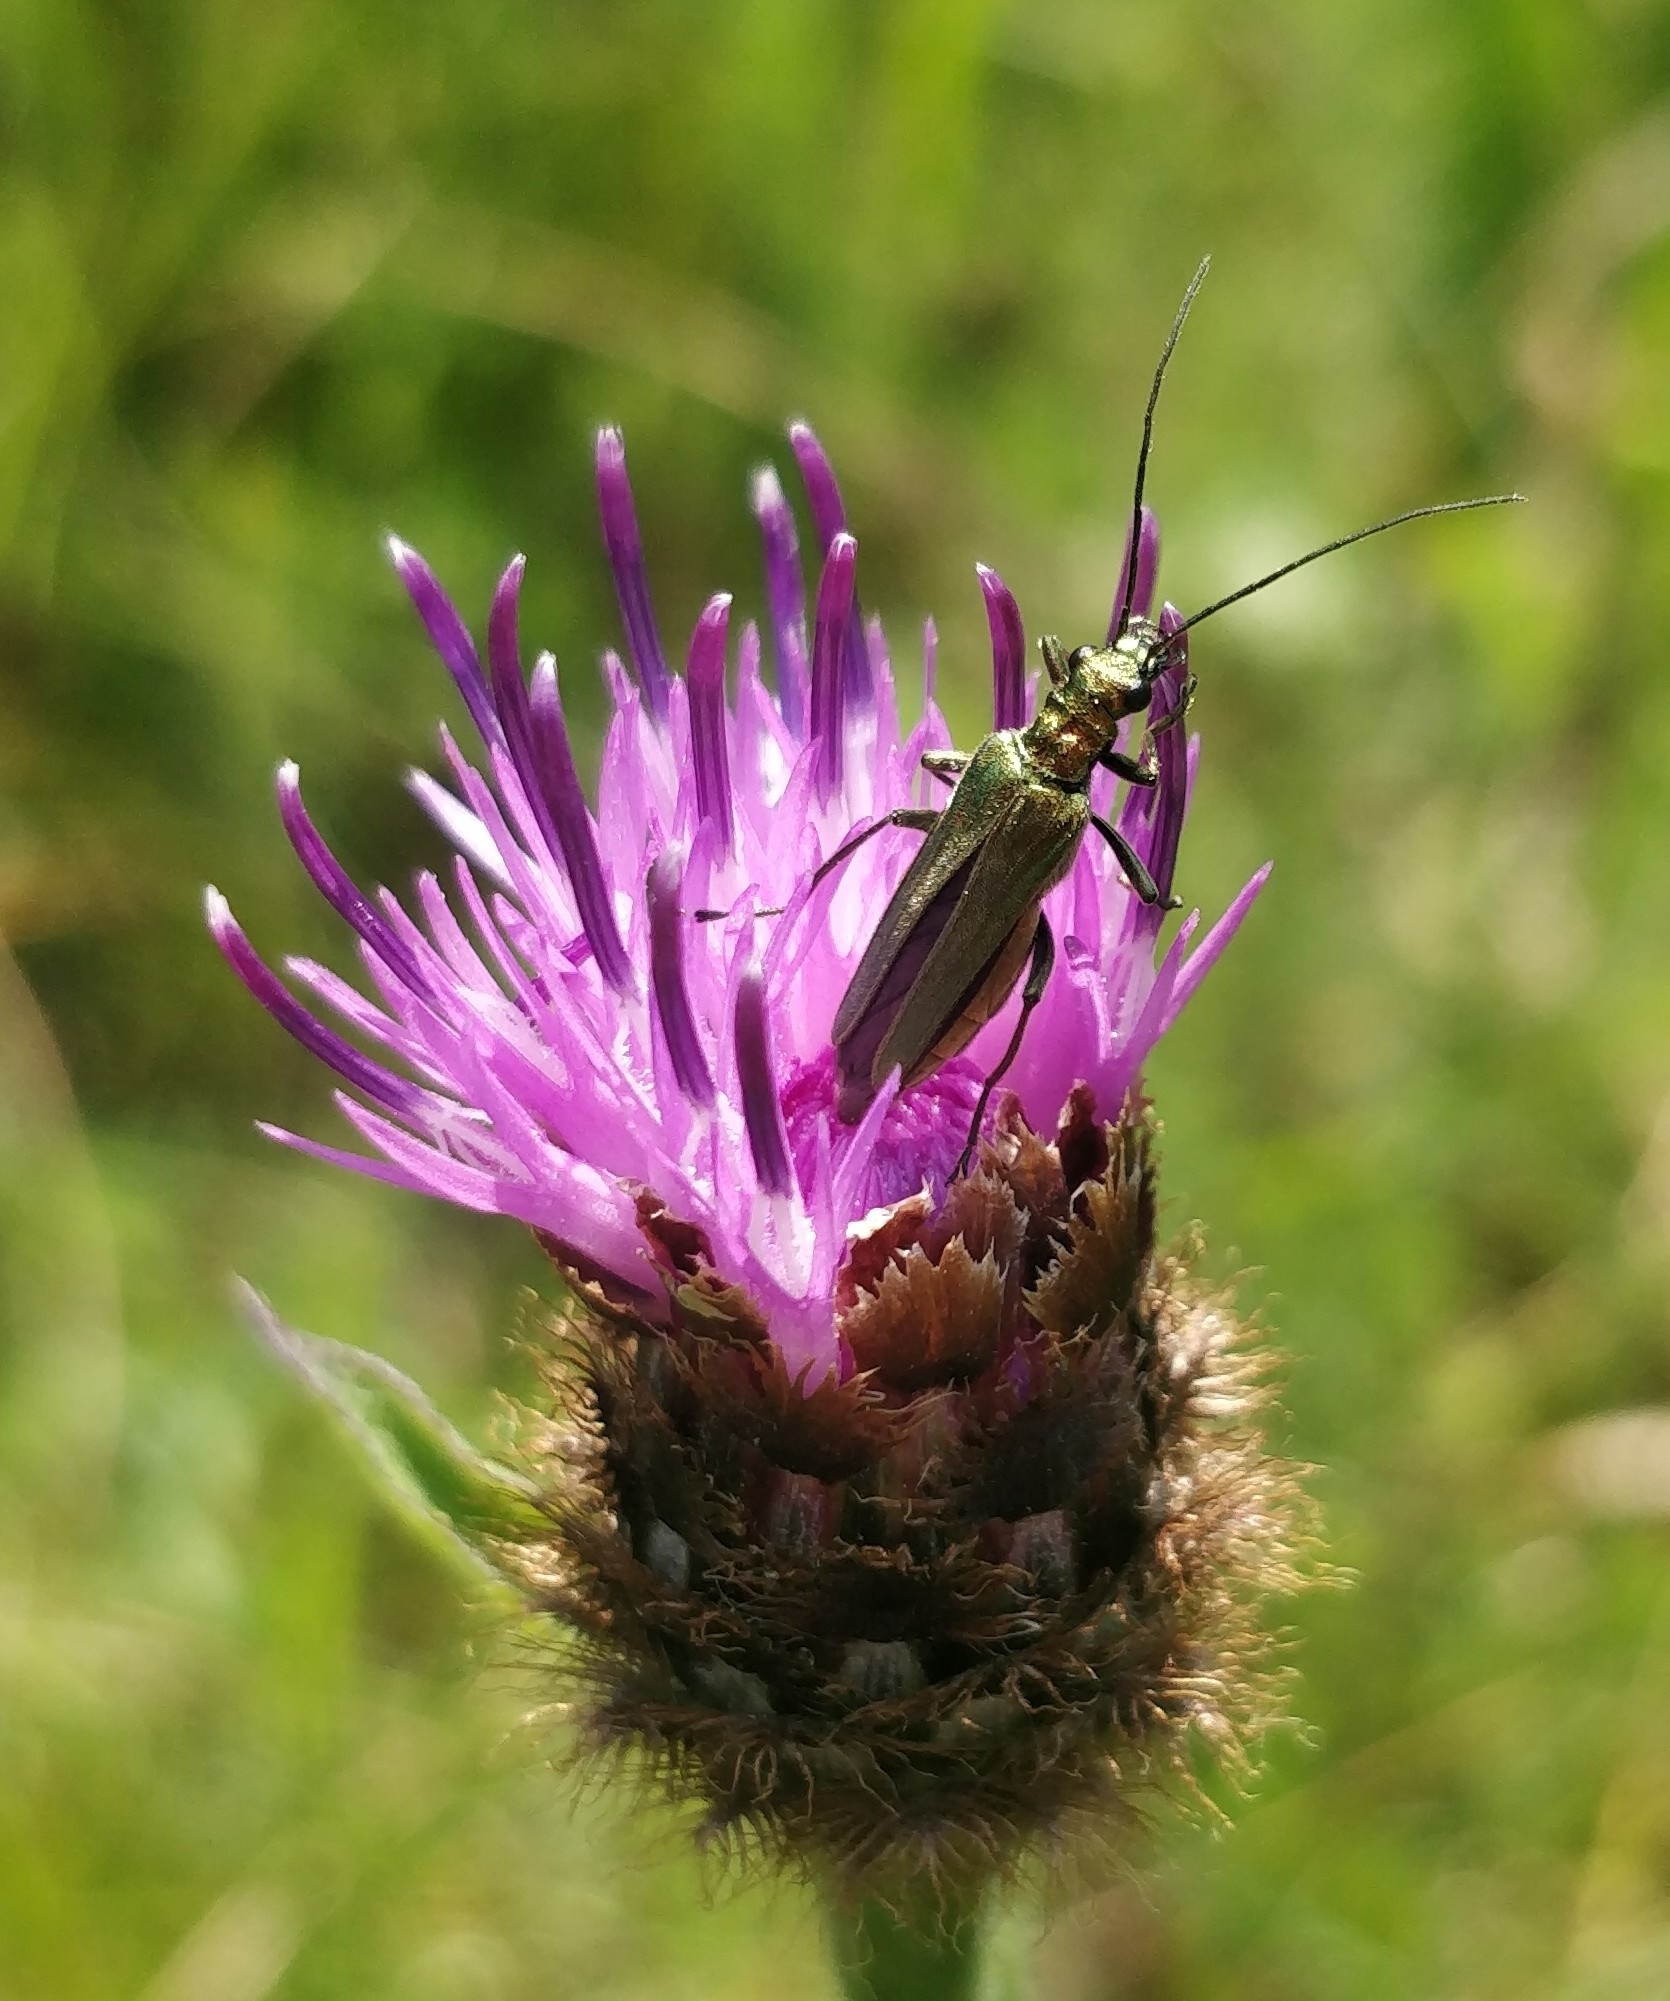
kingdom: Animalia
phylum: Arthropoda
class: Insecta
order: Coleoptera
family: Oedemeridae
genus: Oedemera
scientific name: Oedemera nobilis
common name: Swollen-thighed beetle
